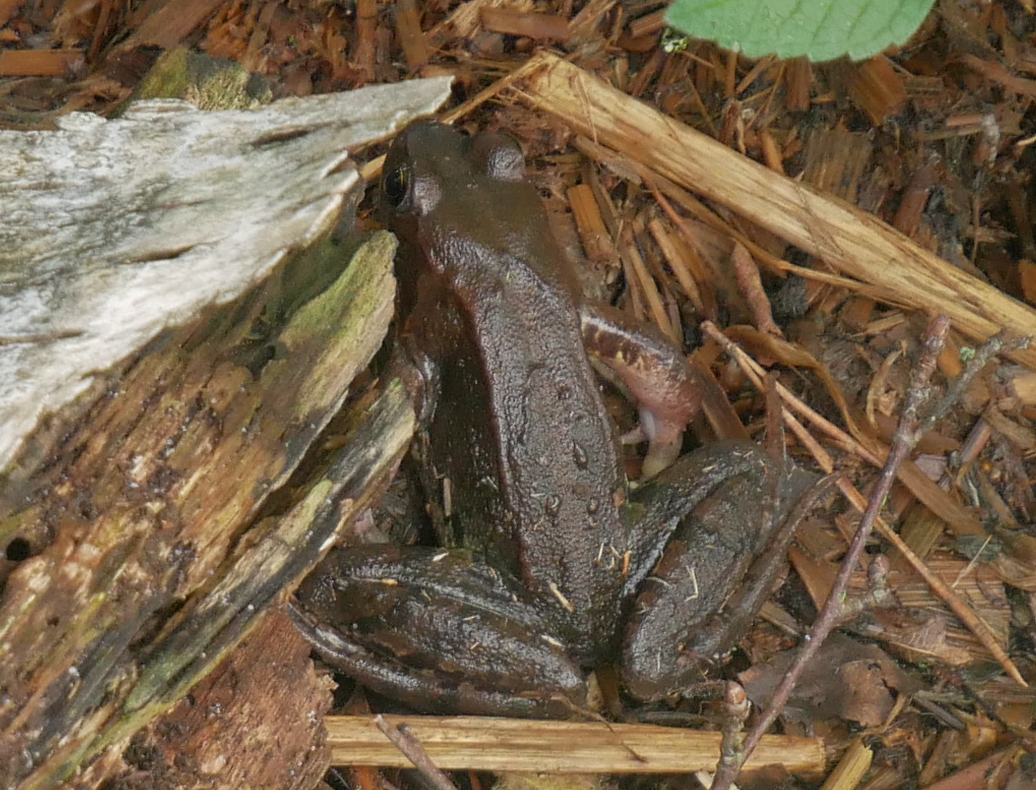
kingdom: Animalia
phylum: Chordata
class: Amphibia
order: Anura
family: Ranidae
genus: Rana
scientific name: Rana temporaria
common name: Common frog
